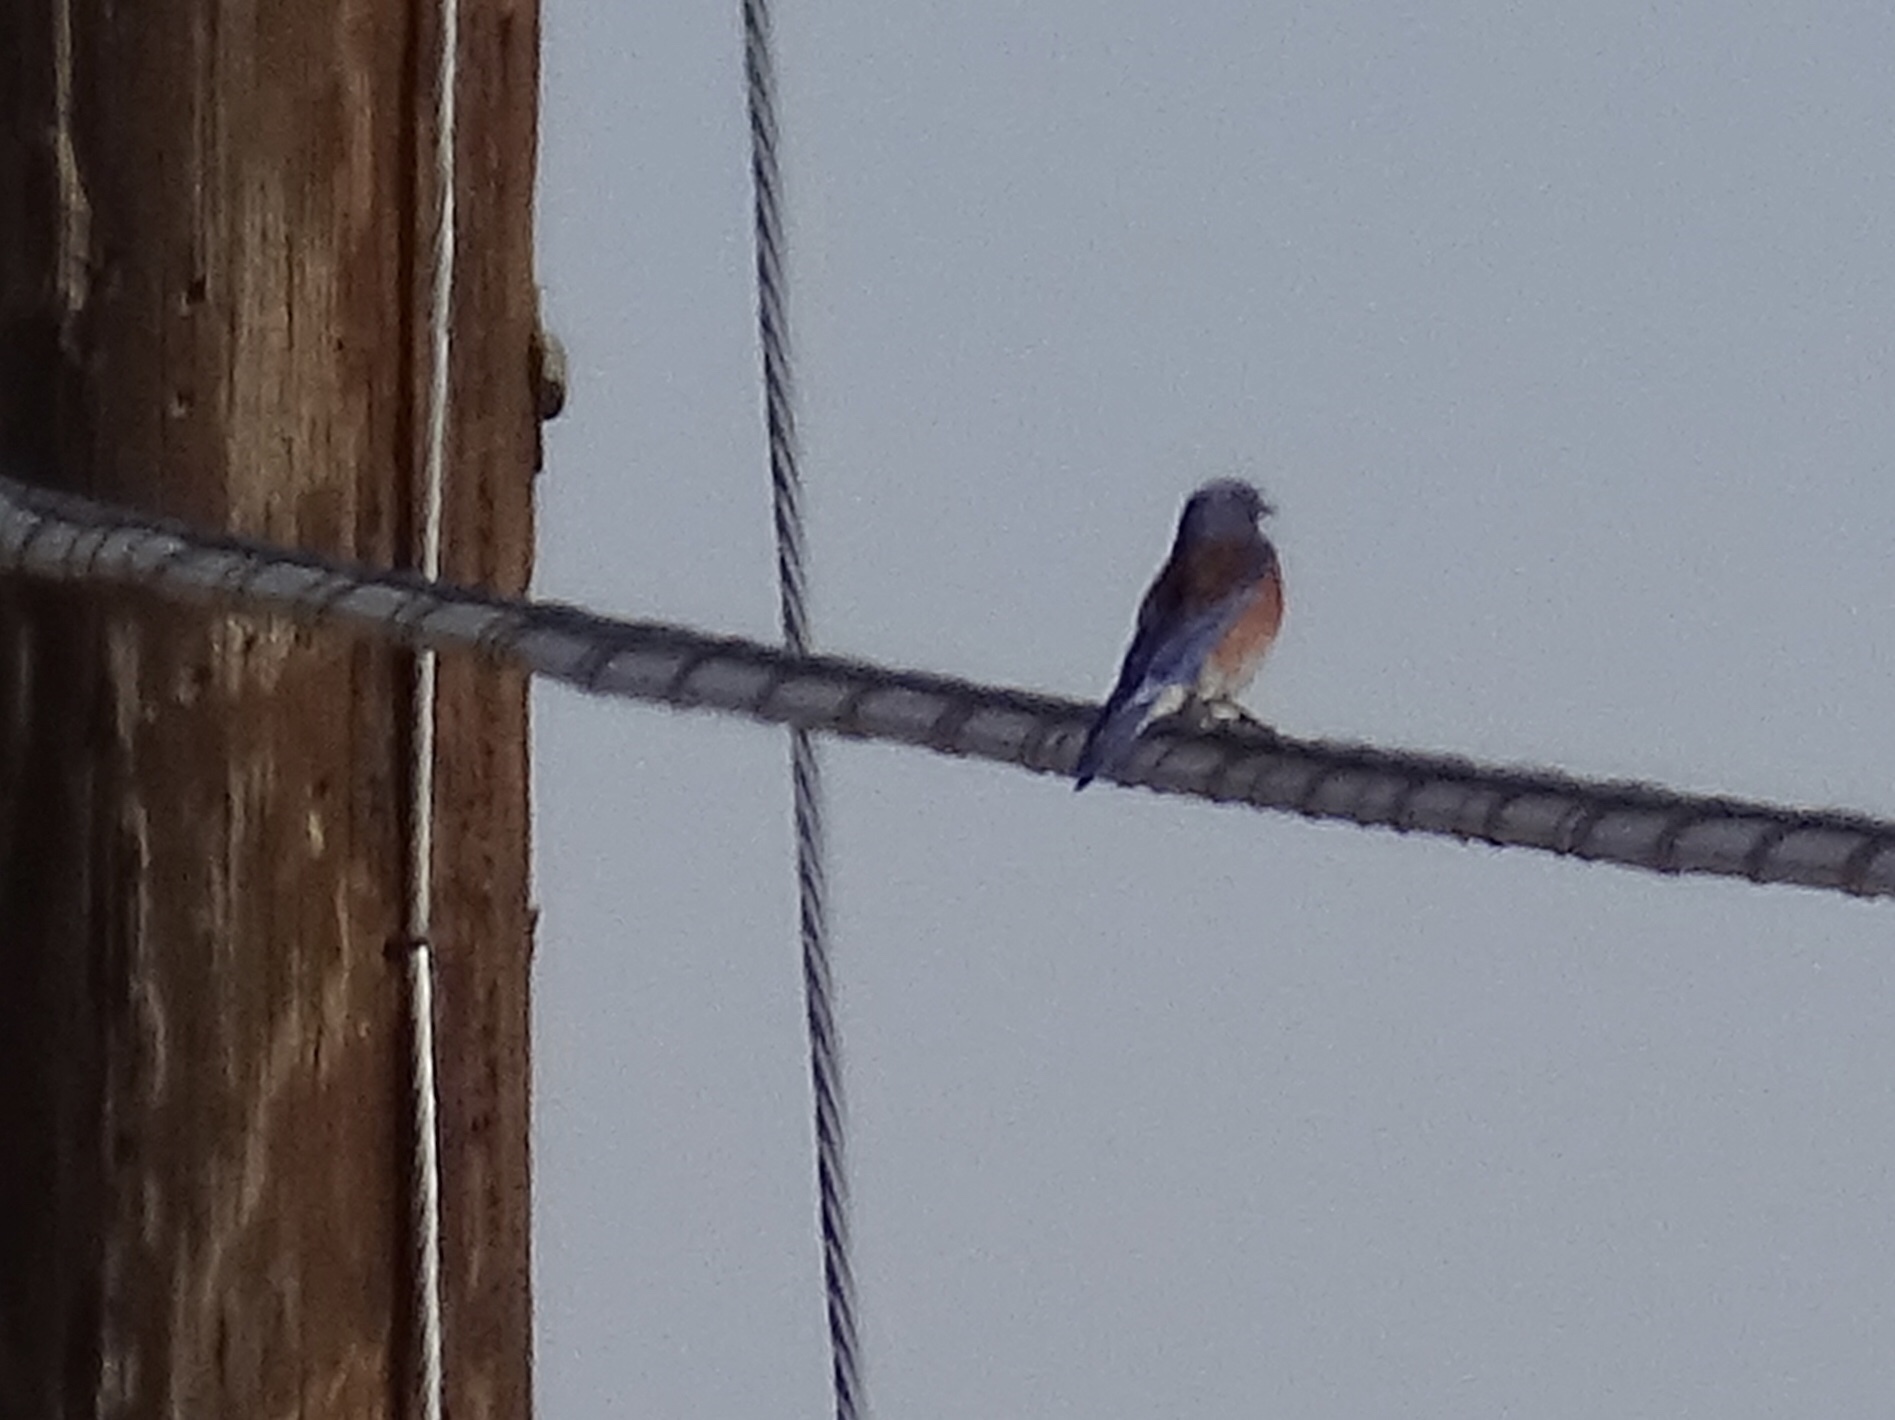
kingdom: Animalia
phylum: Chordata
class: Aves
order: Passeriformes
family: Turdidae
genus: Sialia
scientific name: Sialia mexicana
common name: Western bluebird
